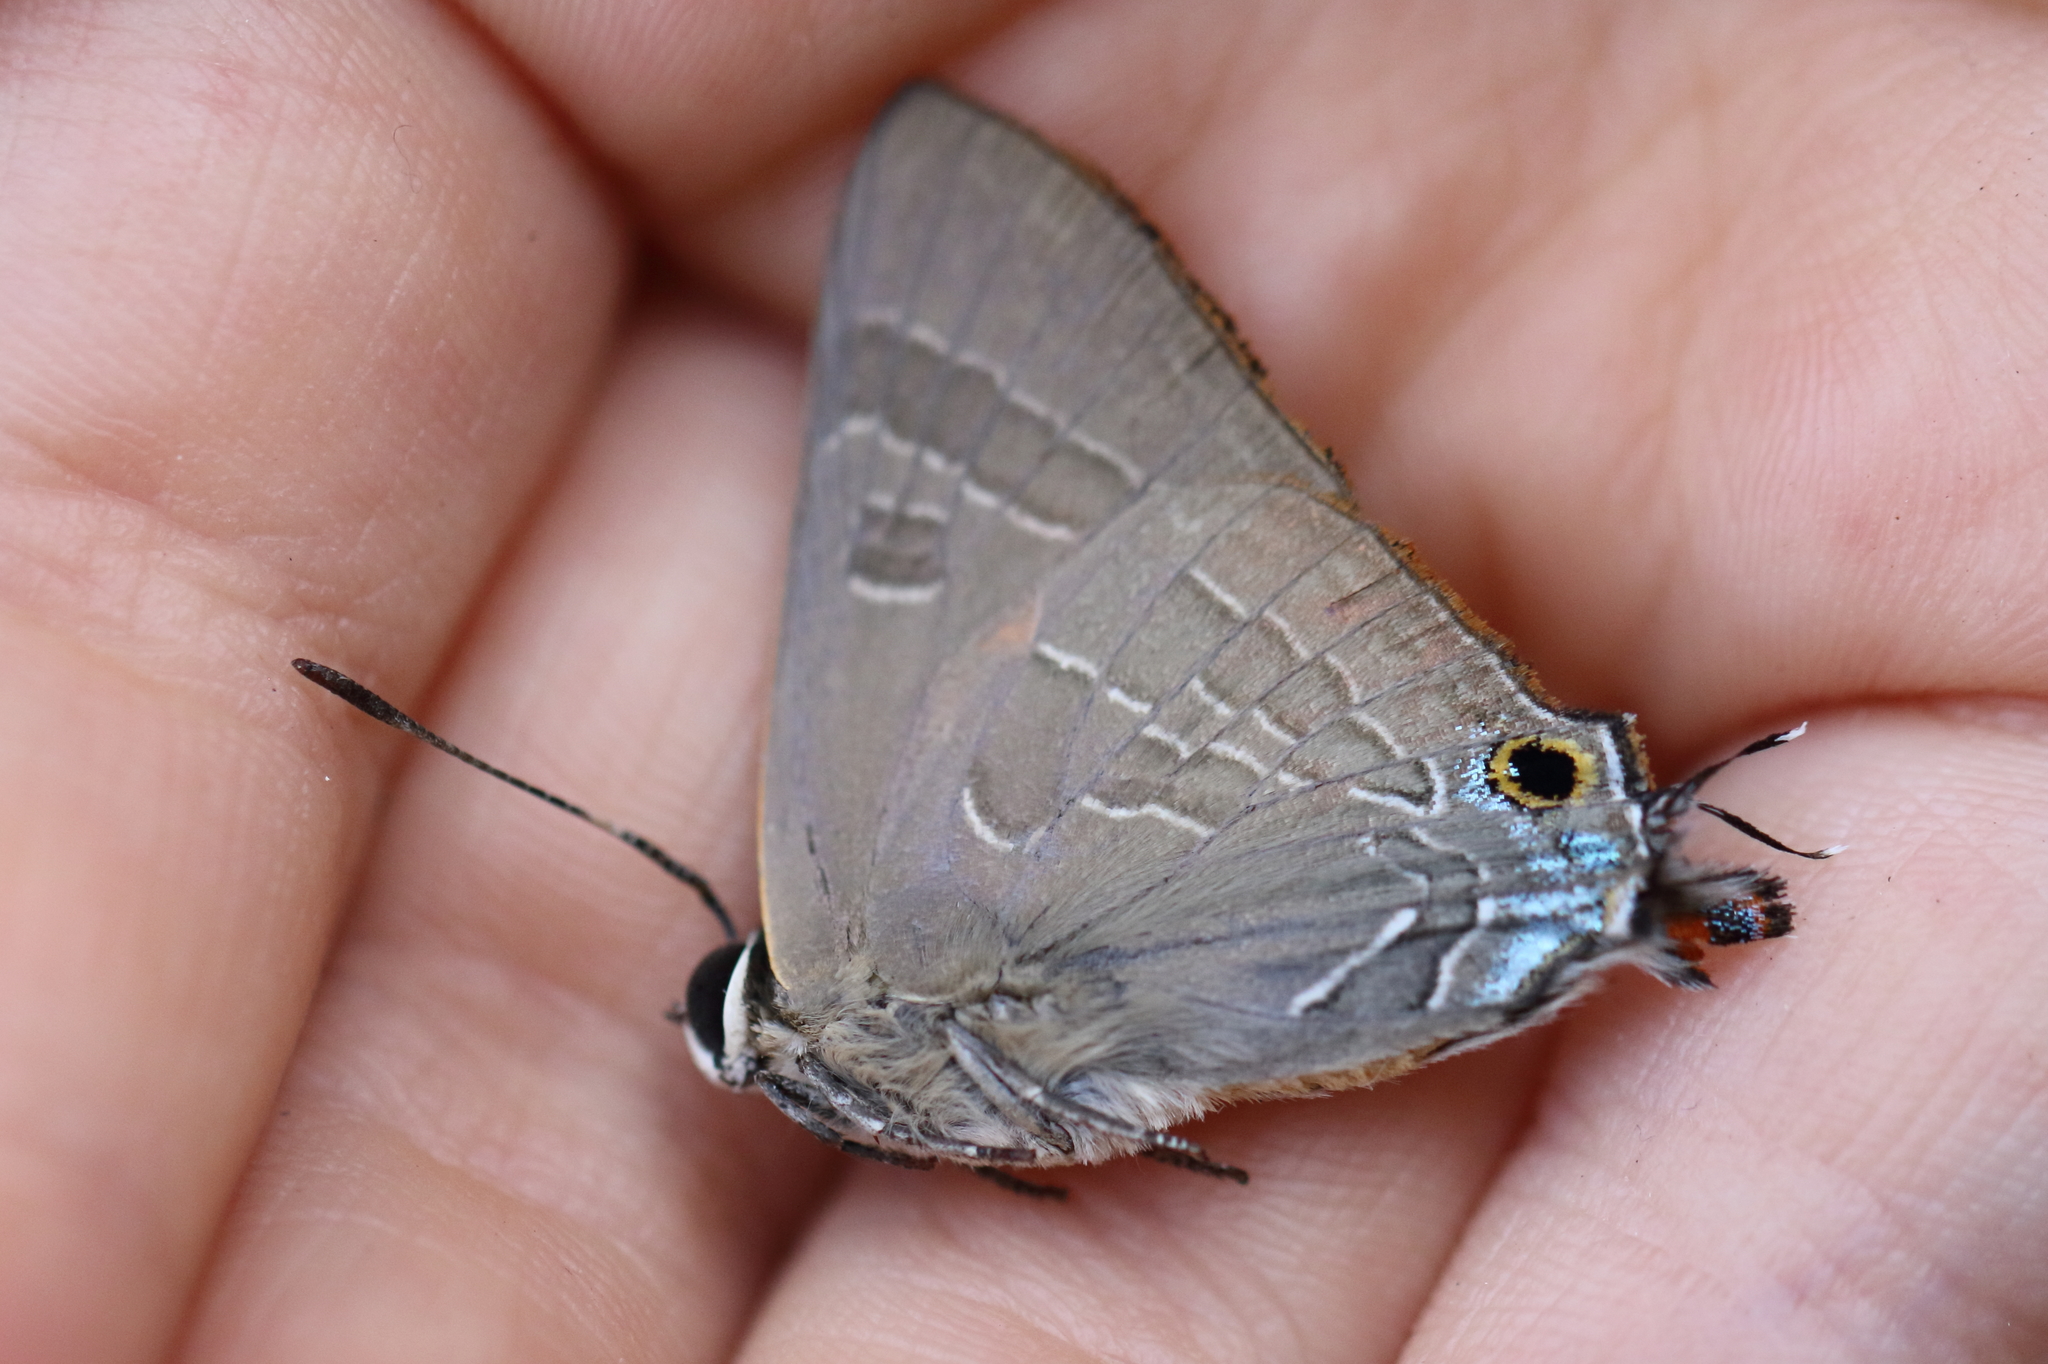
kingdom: Animalia
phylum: Arthropoda
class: Insecta
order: Lepidoptera
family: Lycaenidae
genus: Deudorix
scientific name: Deudorix diovis
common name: Bright cornelian
